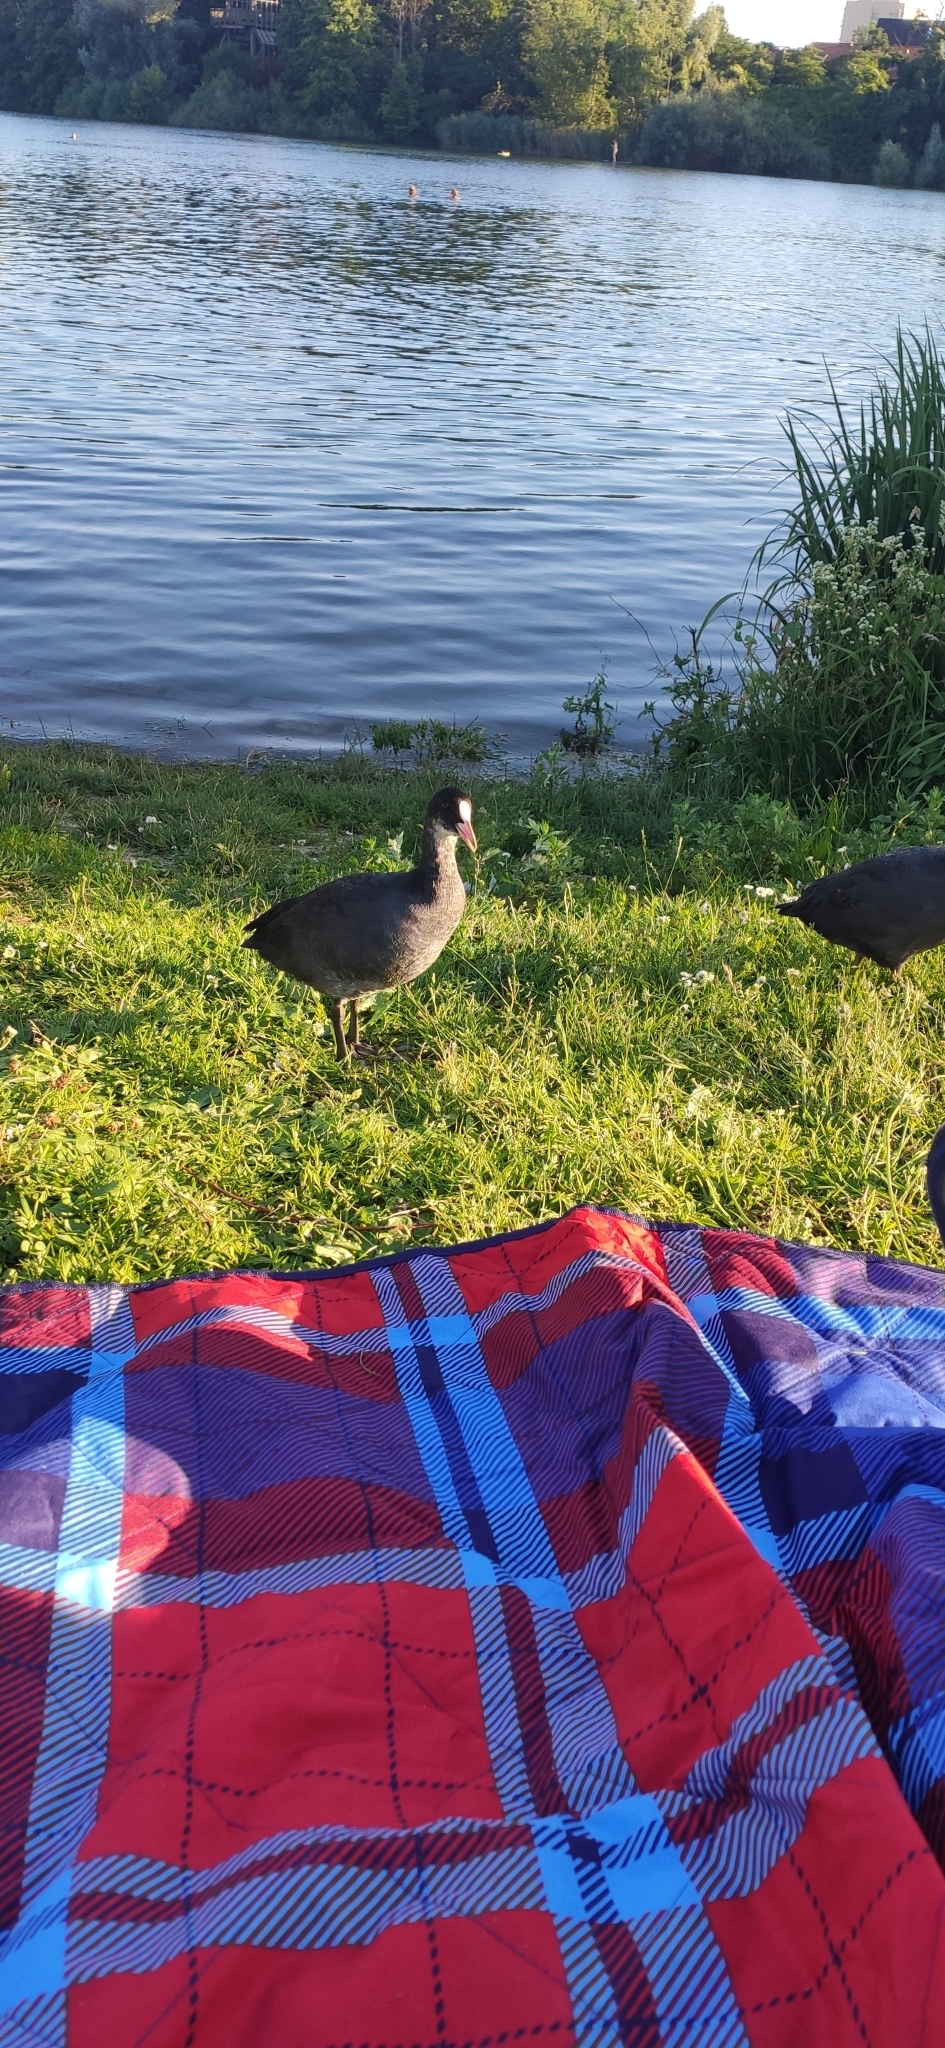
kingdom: Animalia
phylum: Chordata
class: Aves
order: Gruiformes
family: Rallidae
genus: Fulica
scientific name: Fulica atra
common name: Eurasian coot
